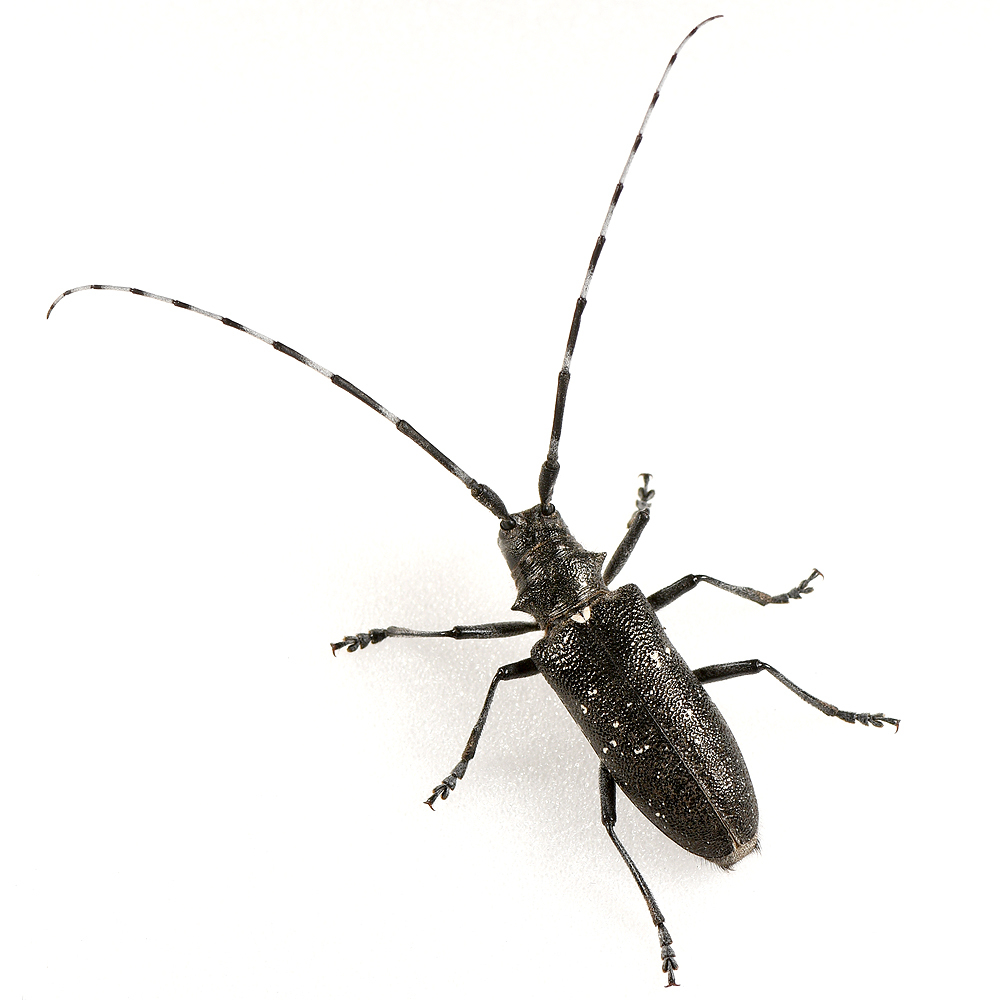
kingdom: Animalia
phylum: Arthropoda
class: Insecta
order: Coleoptera
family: Cerambycidae
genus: Monochamus
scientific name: Monochamus scutellatus
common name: White-spotted sawyer beetle
